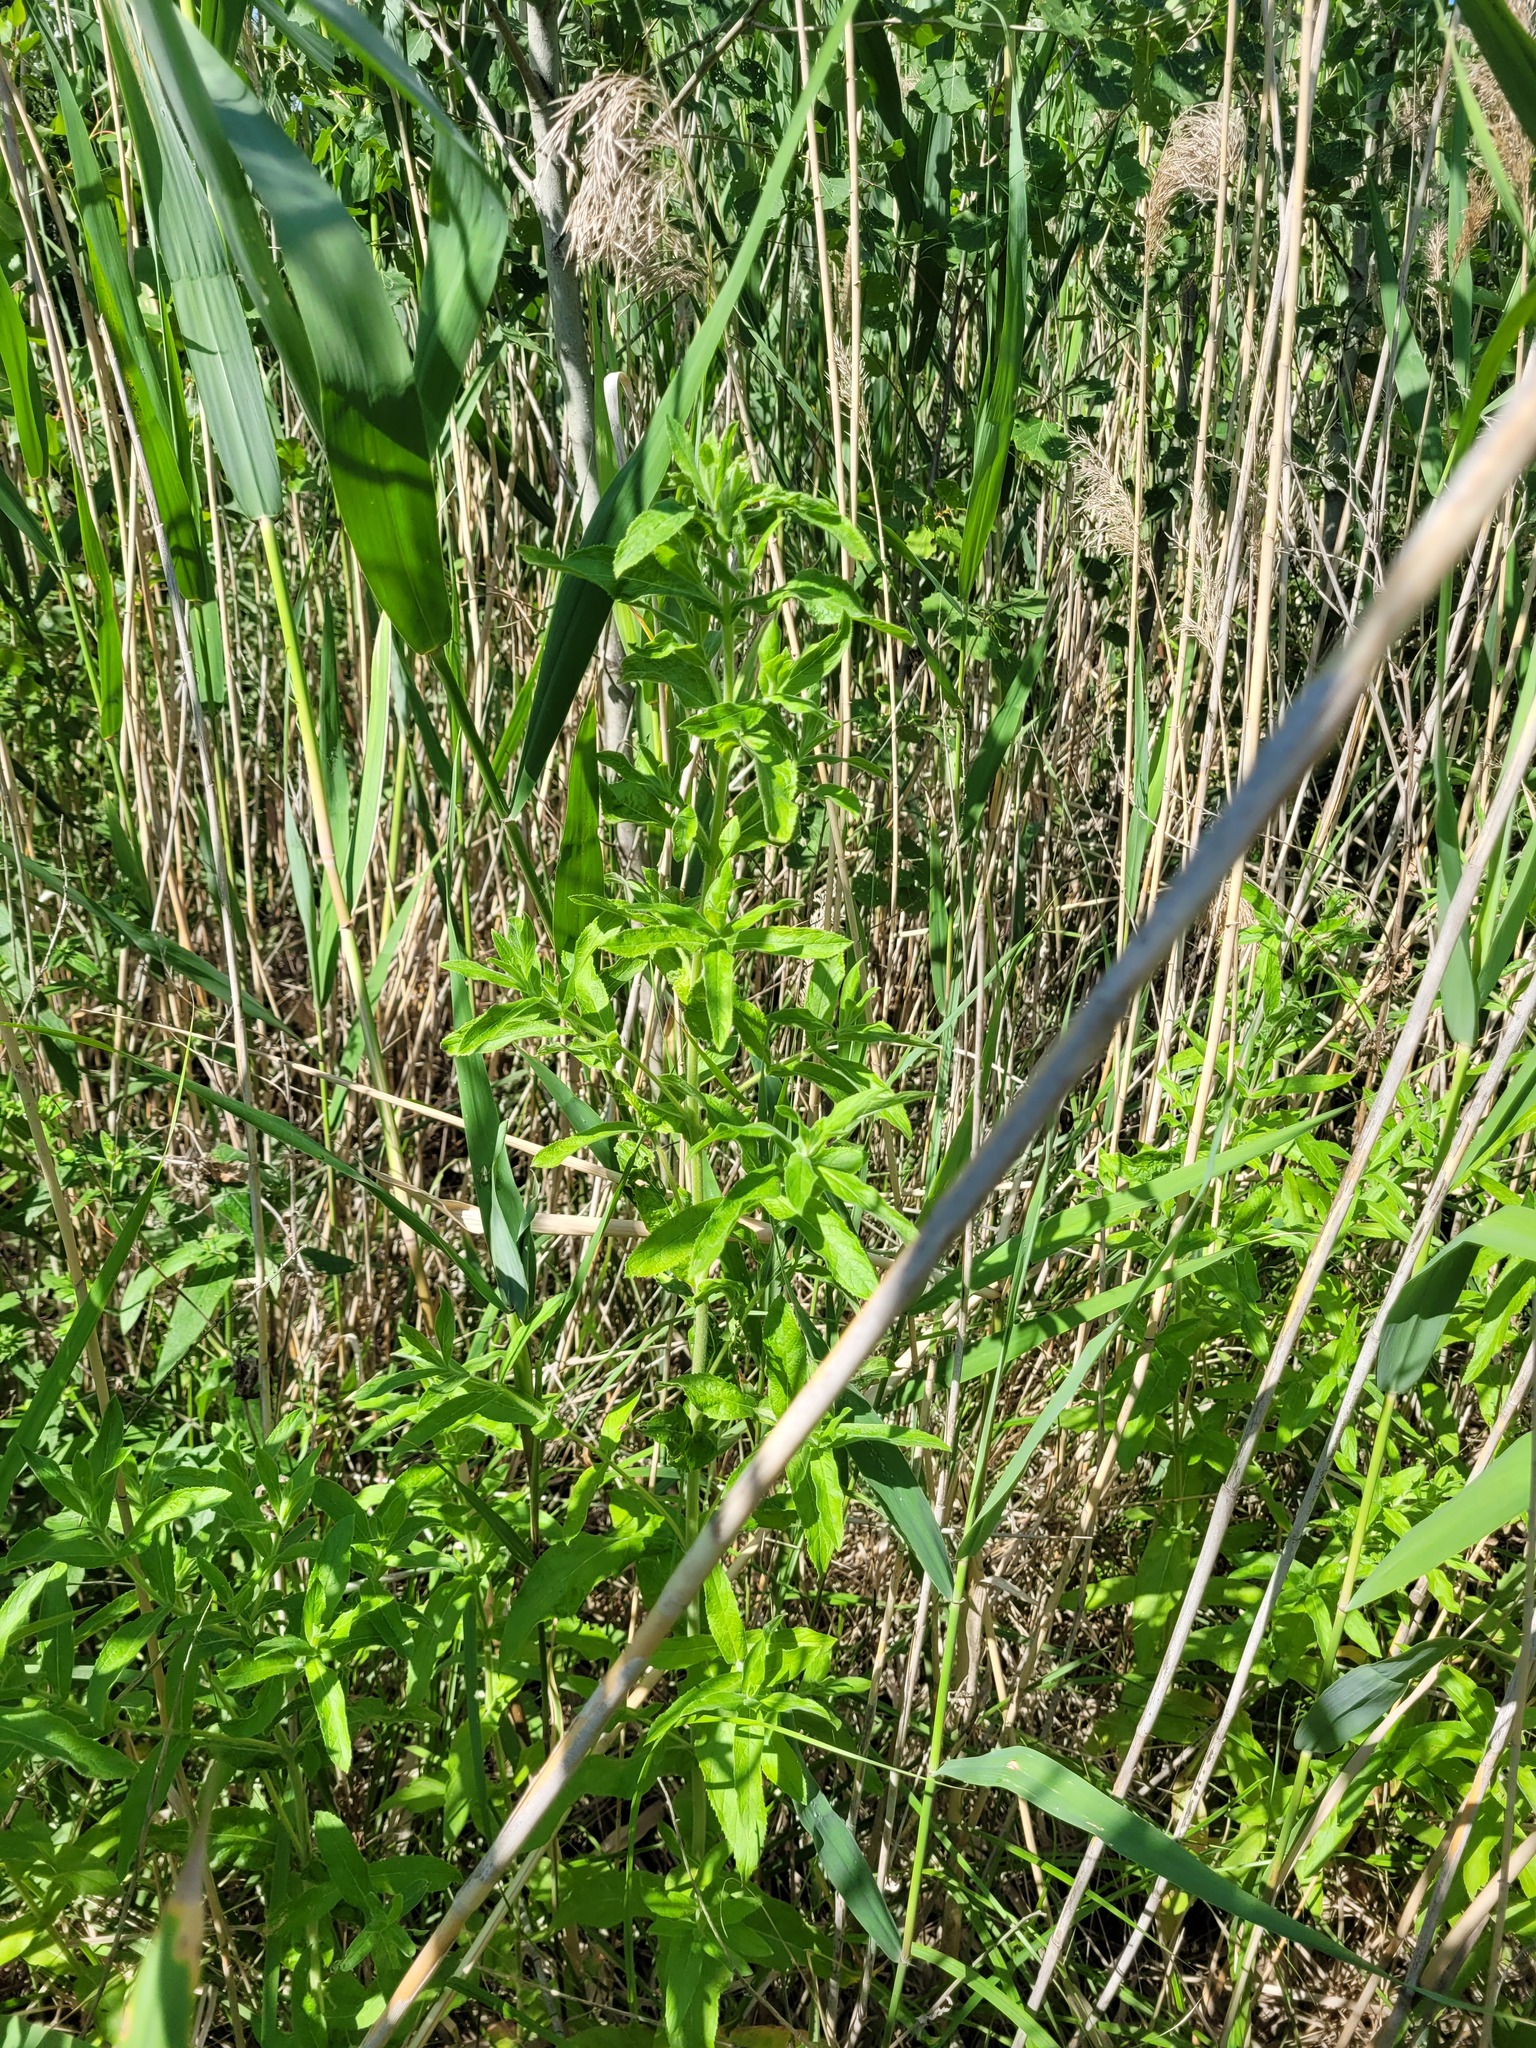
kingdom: Plantae
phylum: Tracheophyta
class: Magnoliopsida
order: Myrtales
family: Onagraceae
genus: Epilobium
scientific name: Epilobium hirsutum
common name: Great willowherb
